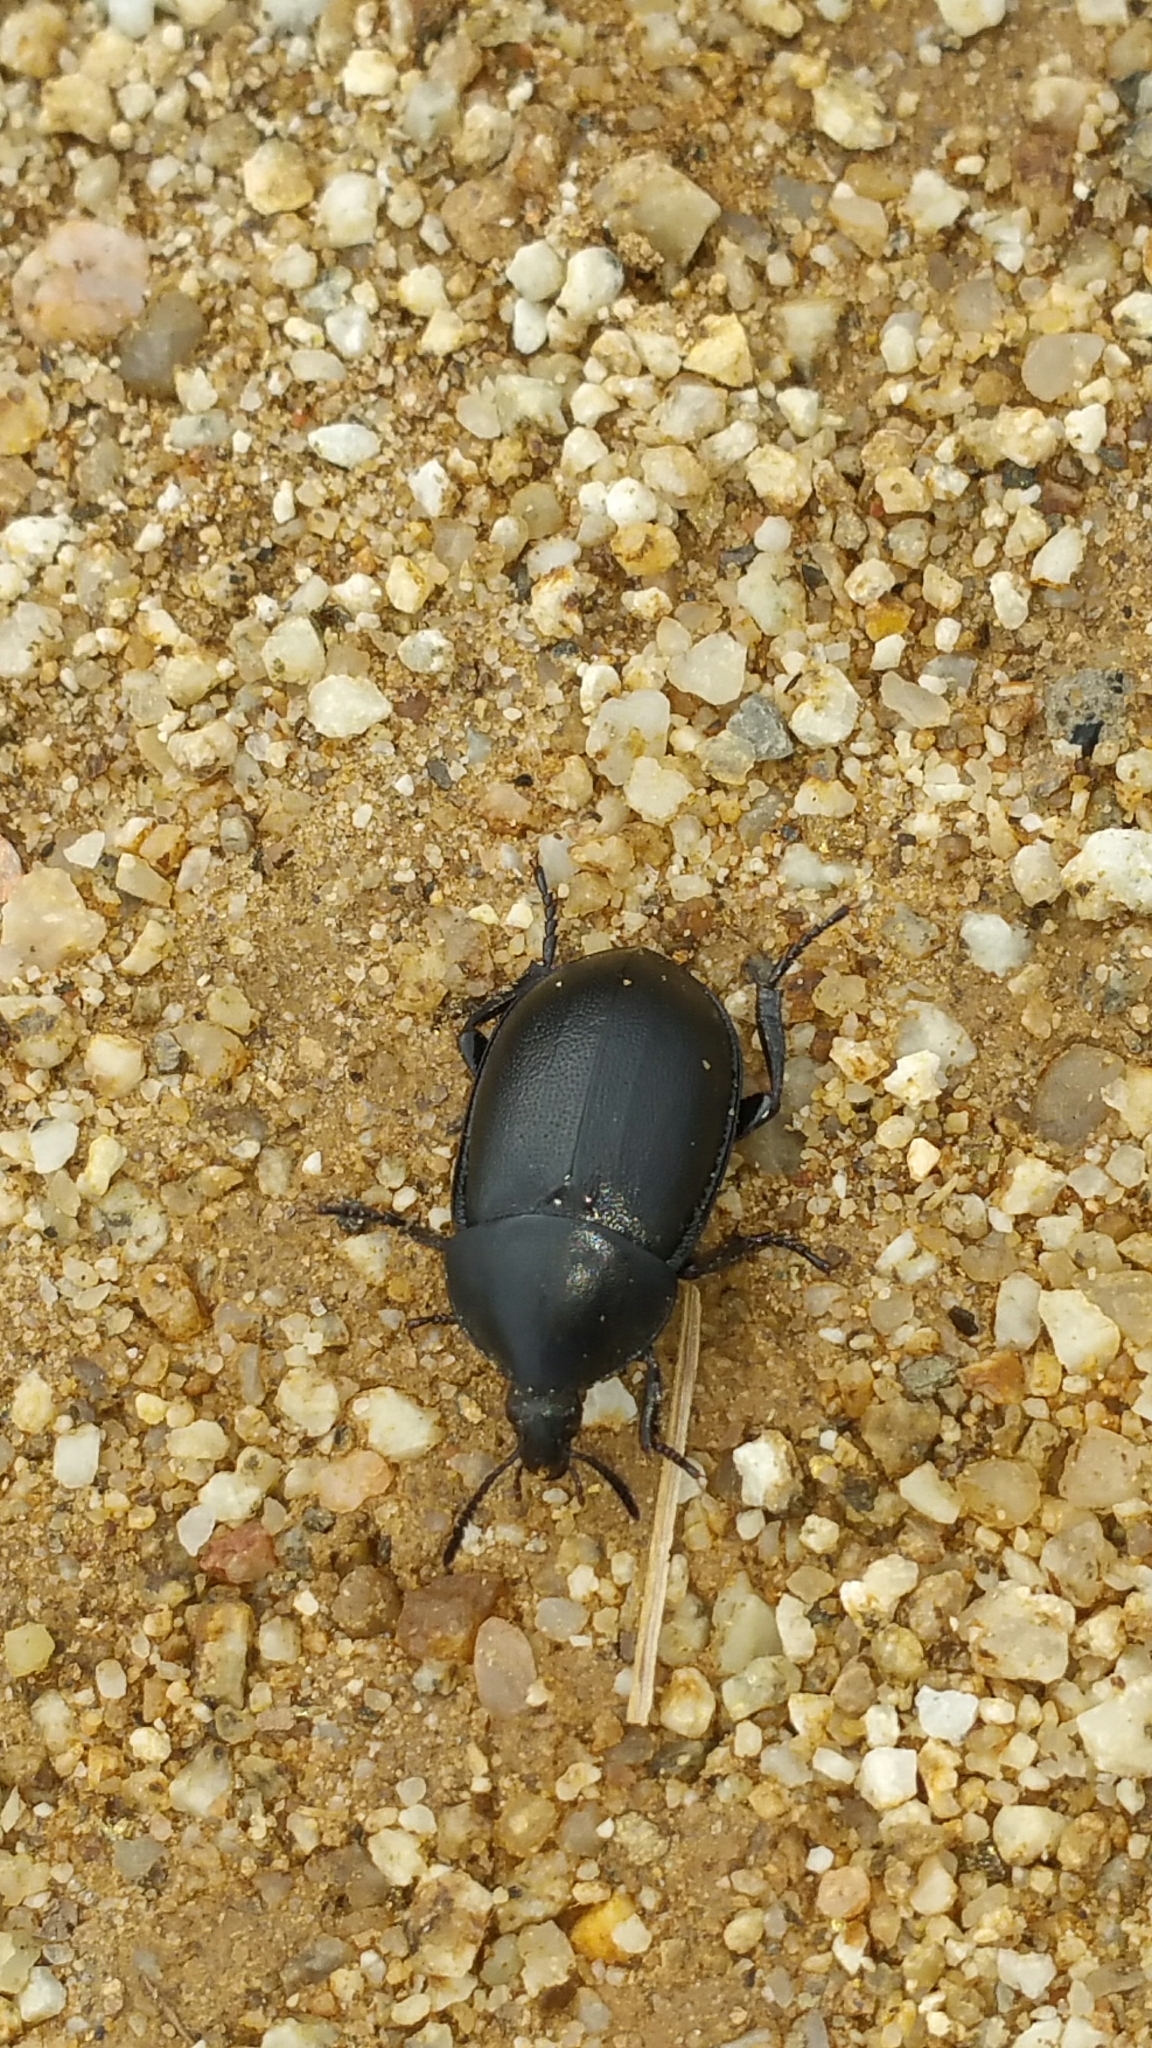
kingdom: Animalia
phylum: Arthropoda
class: Insecta
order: Coleoptera
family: Staphylinidae
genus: Silpha
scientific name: Silpha laevigata
